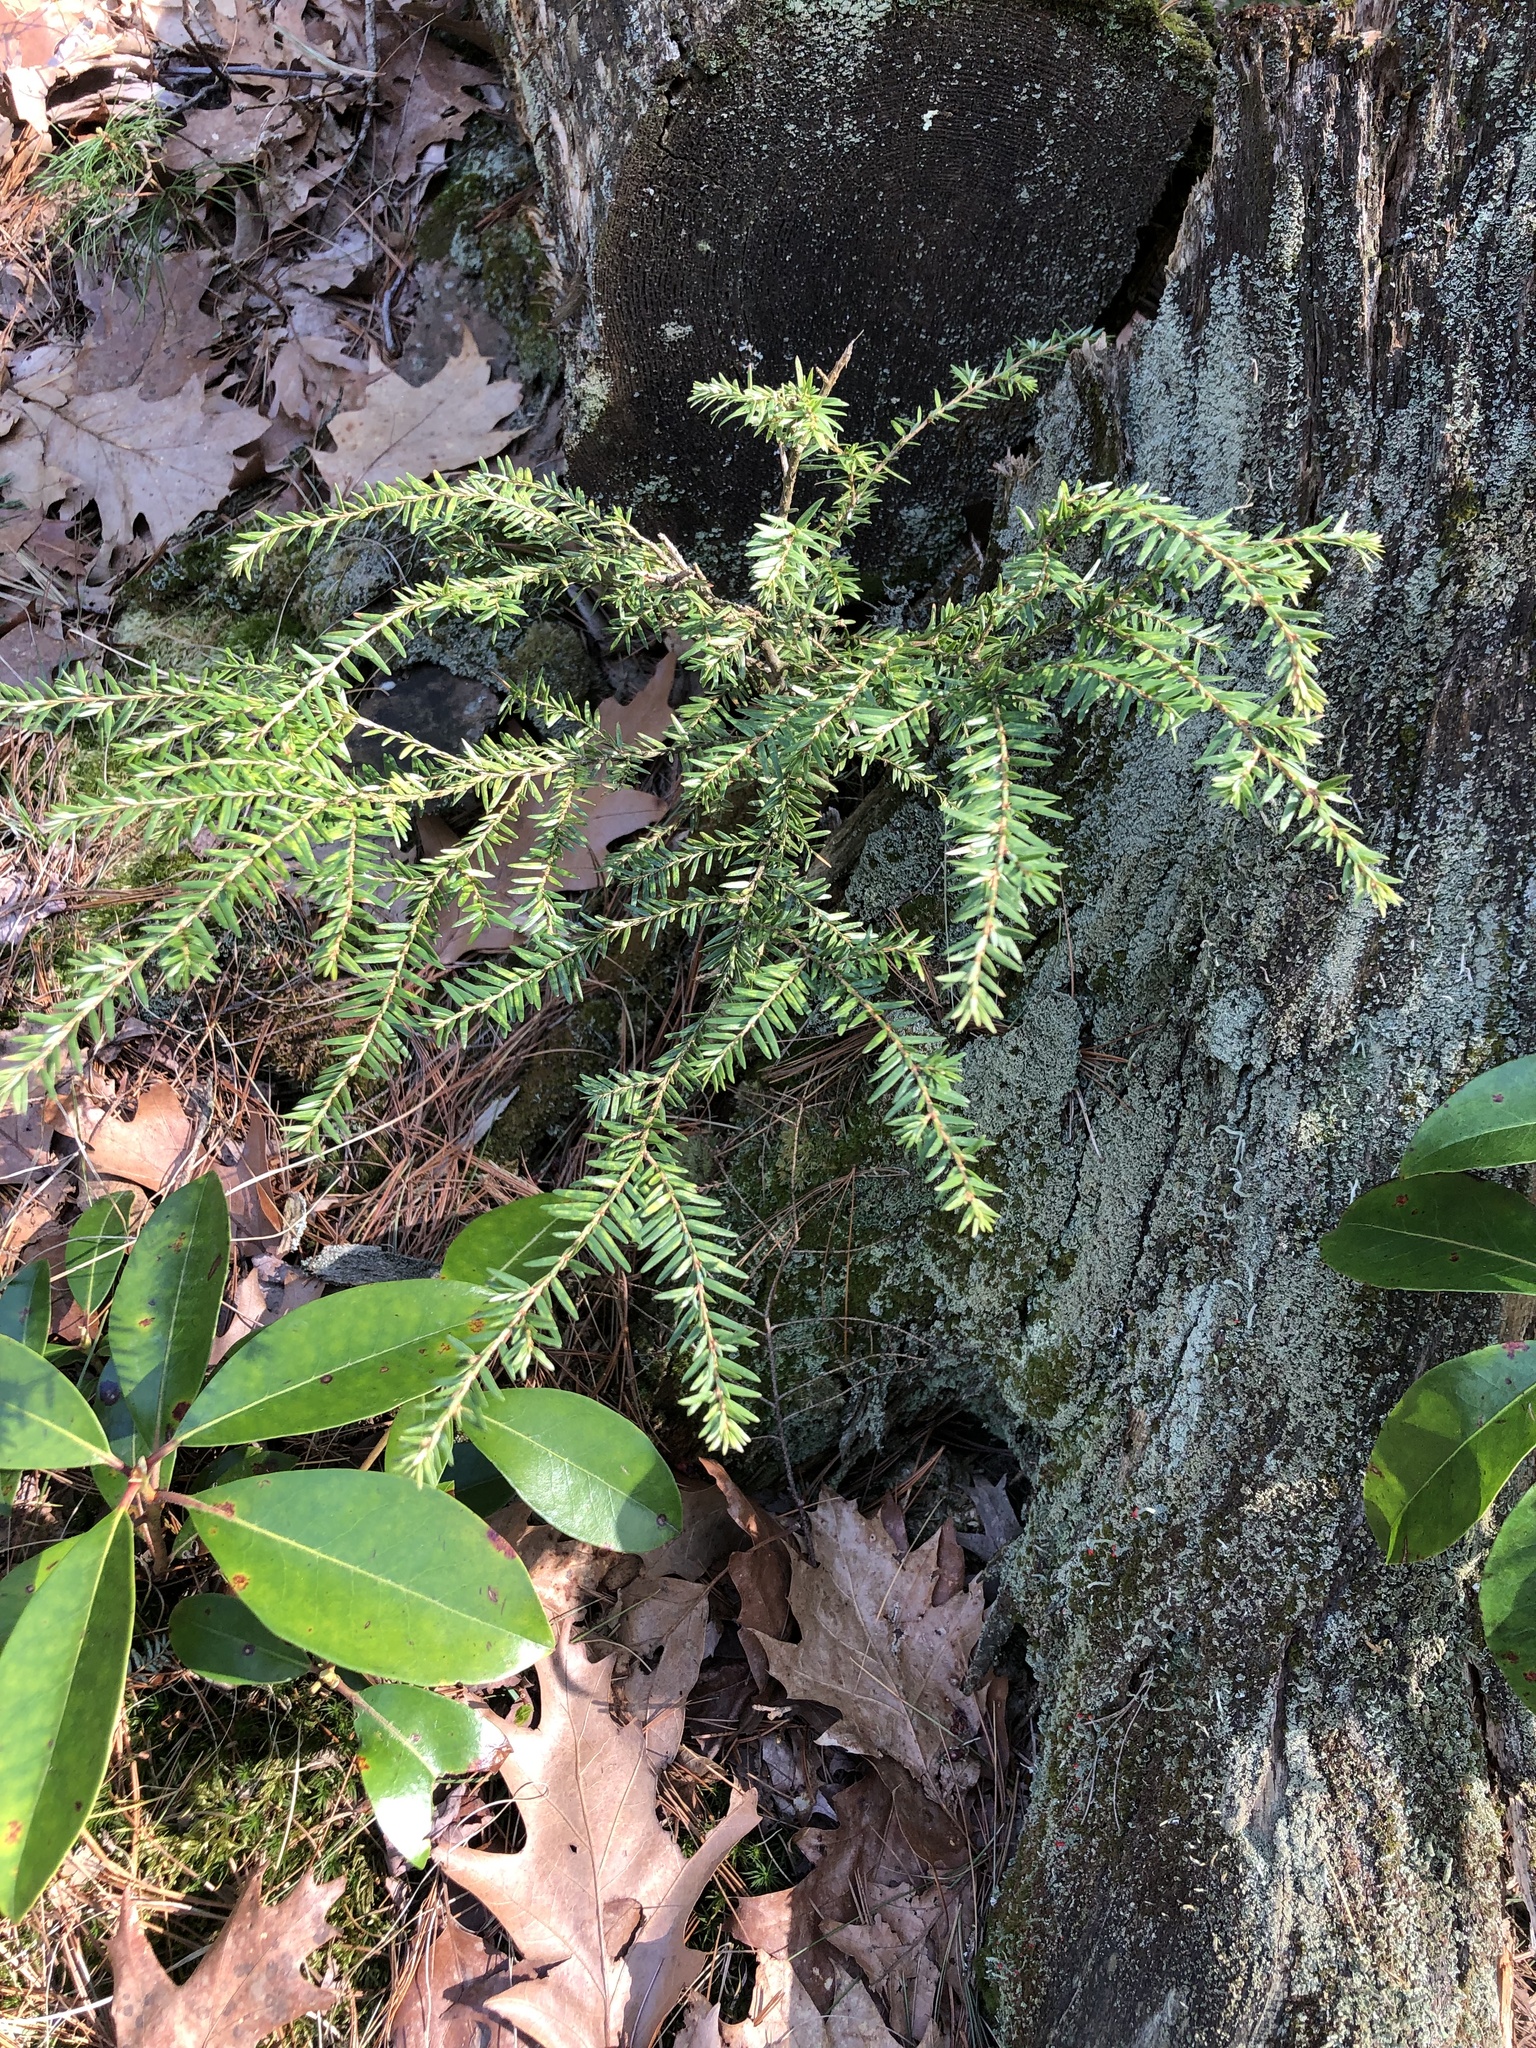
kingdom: Plantae
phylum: Tracheophyta
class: Pinopsida
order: Pinales
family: Pinaceae
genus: Tsuga
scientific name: Tsuga canadensis
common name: Eastern hemlock
